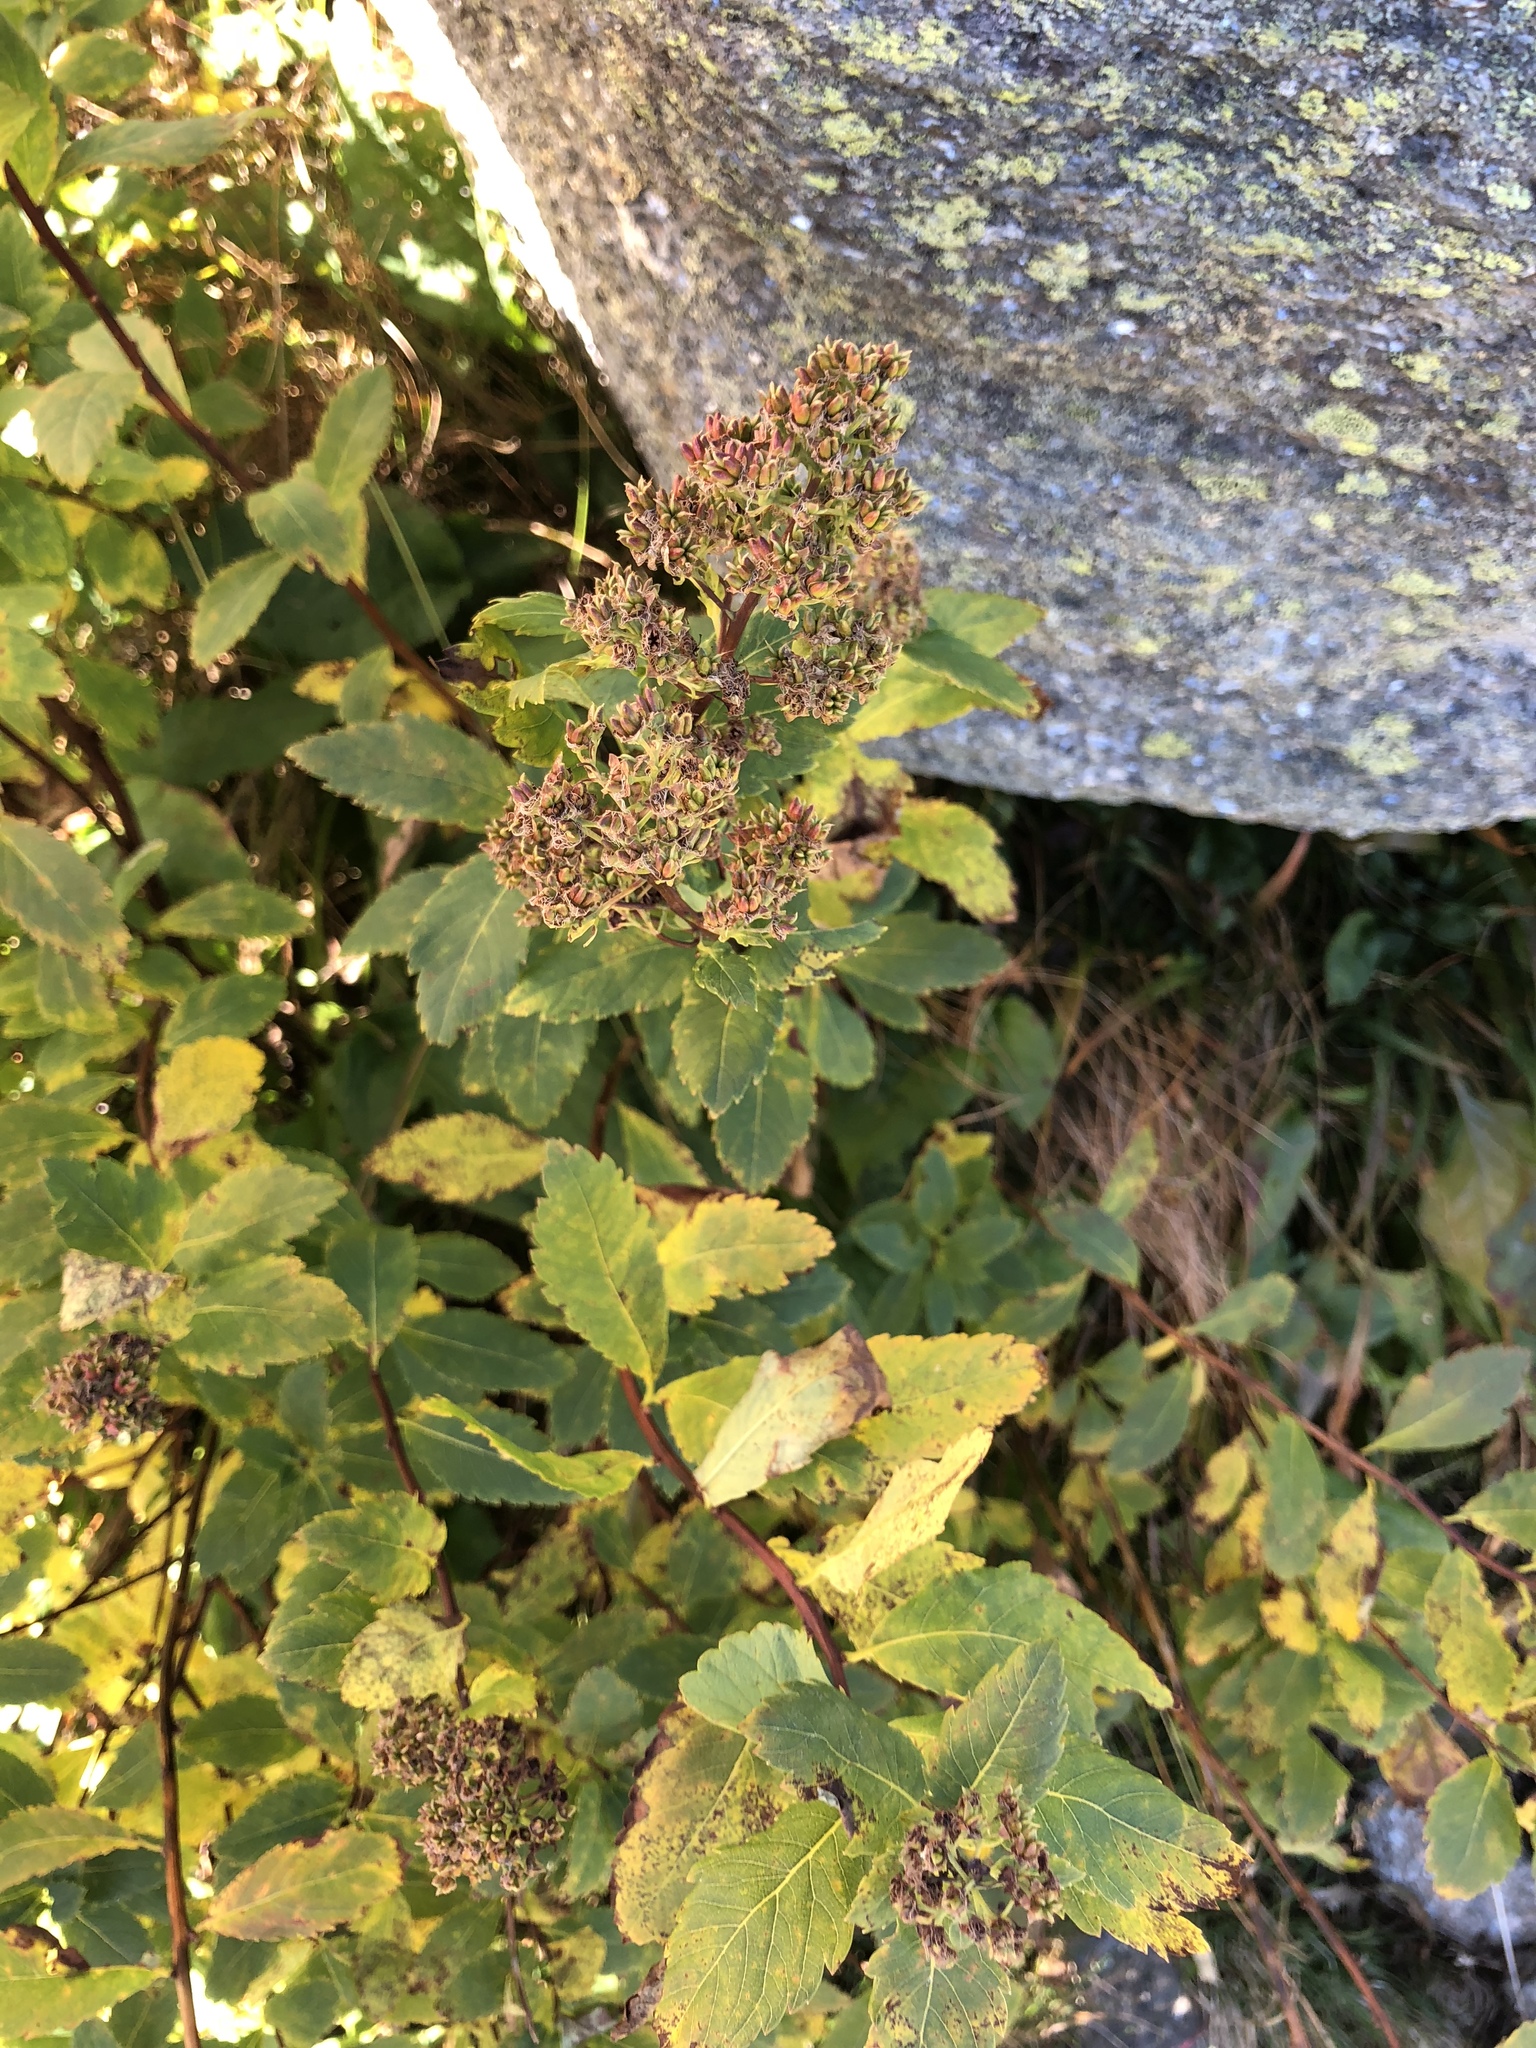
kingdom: Plantae
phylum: Tracheophyta
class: Magnoliopsida
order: Rosales
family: Rosaceae
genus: Spiraea
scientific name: Spiraea alba
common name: Pale bridewort
